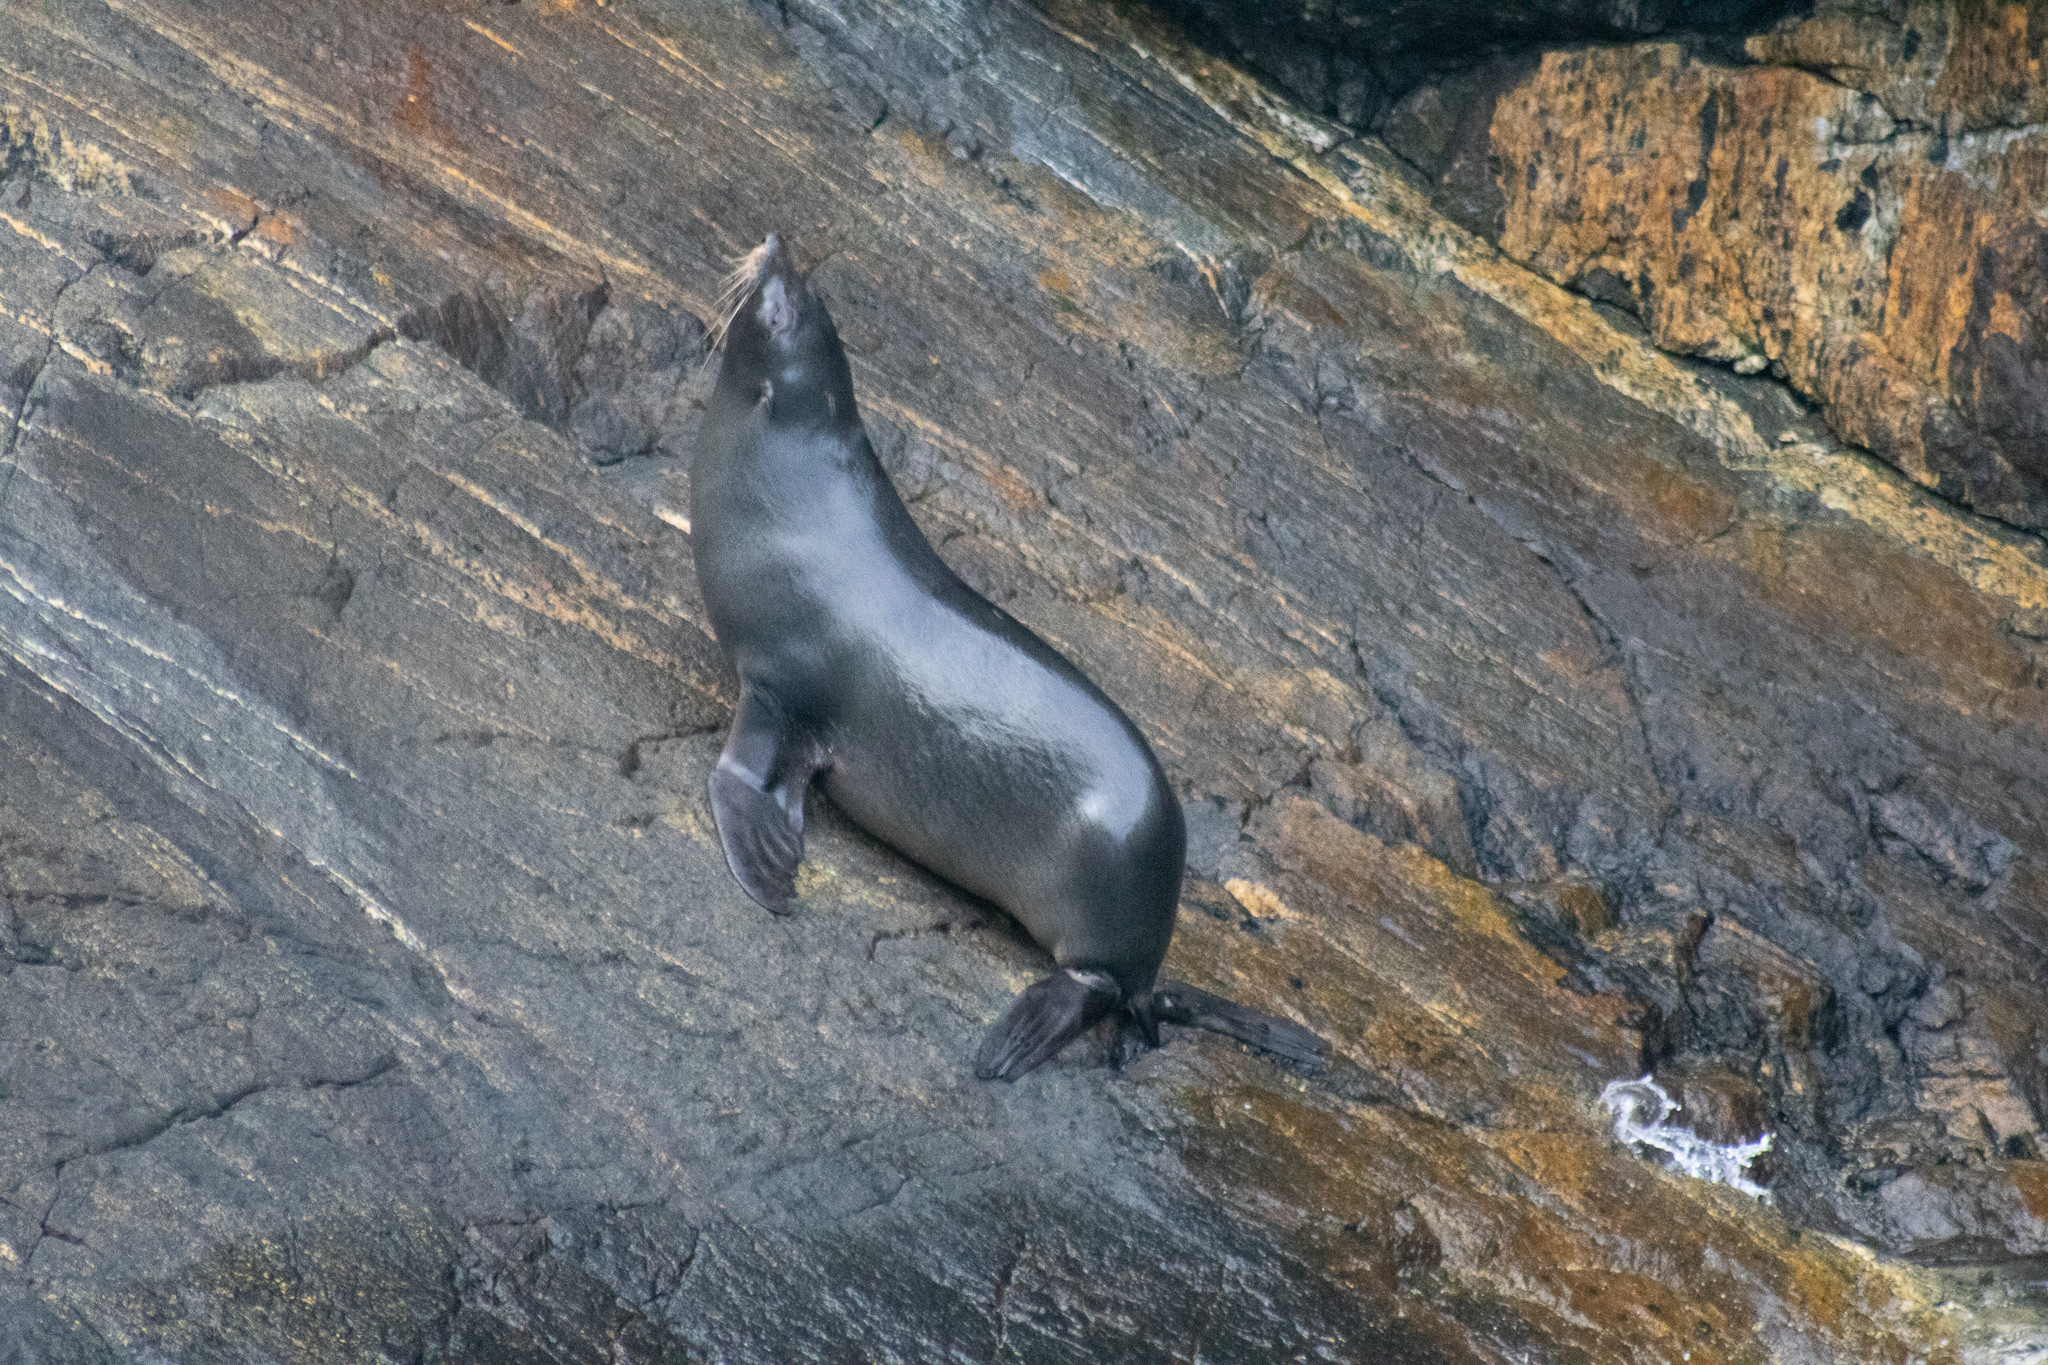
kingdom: Animalia
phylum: Chordata
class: Mammalia
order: Carnivora
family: Otariidae
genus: Arctocephalus
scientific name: Arctocephalus forsteri
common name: New zealand fur seal
